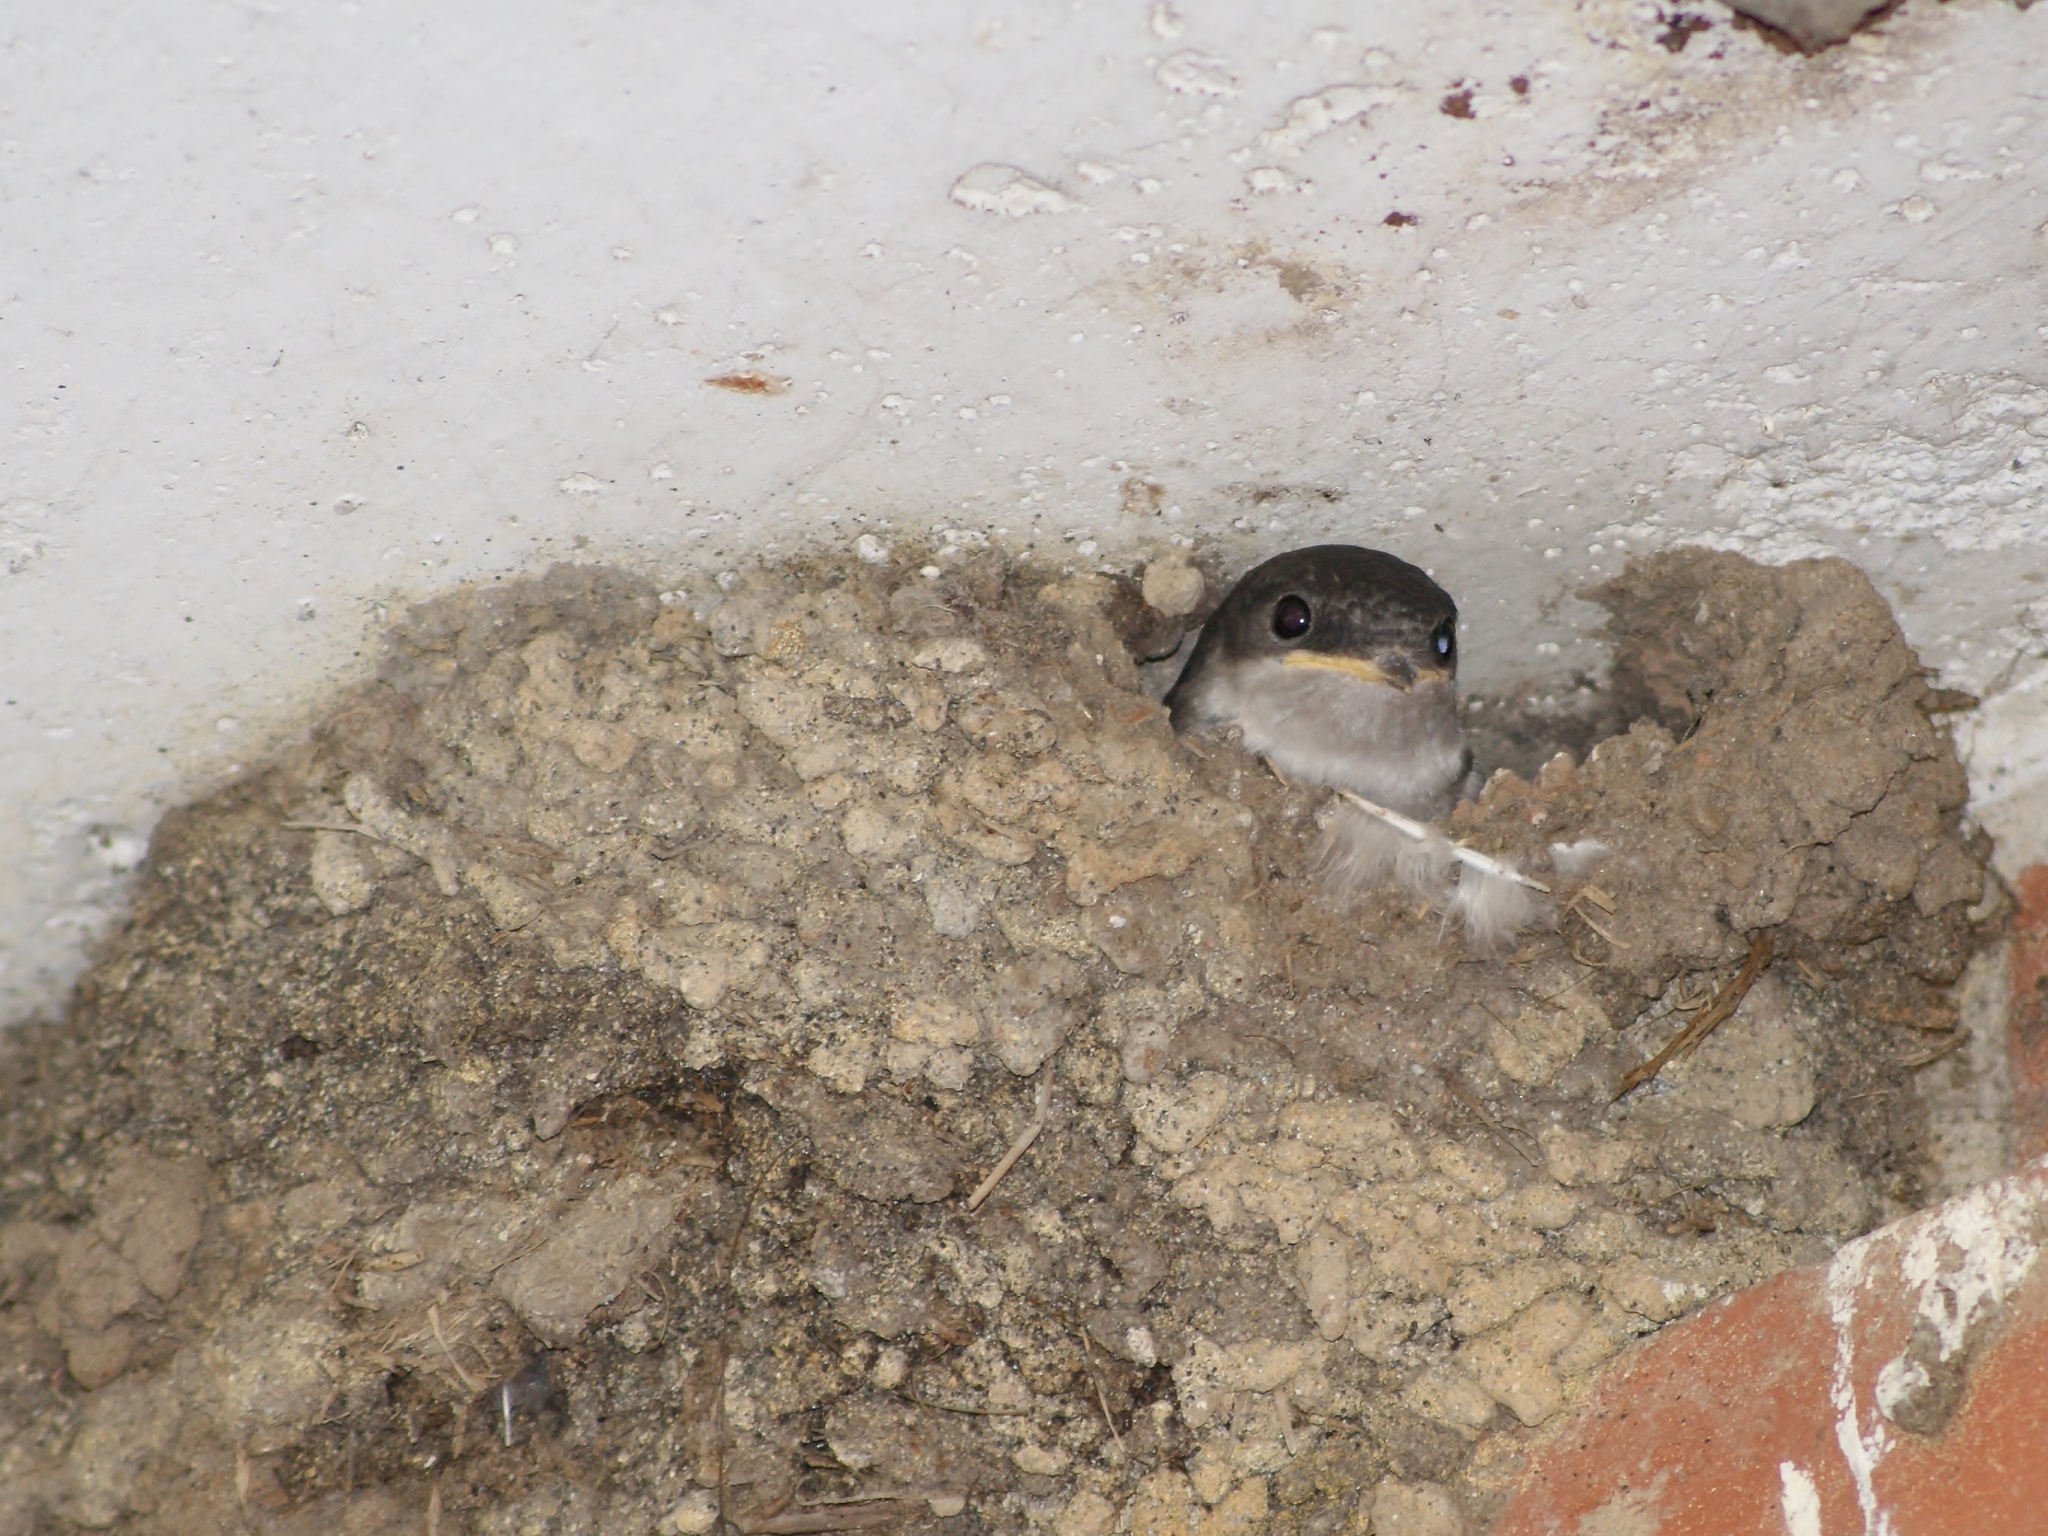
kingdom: Animalia
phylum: Chordata
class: Aves
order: Passeriformes
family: Hirundinidae
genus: Delichon
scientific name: Delichon urbicum
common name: Common house martin
